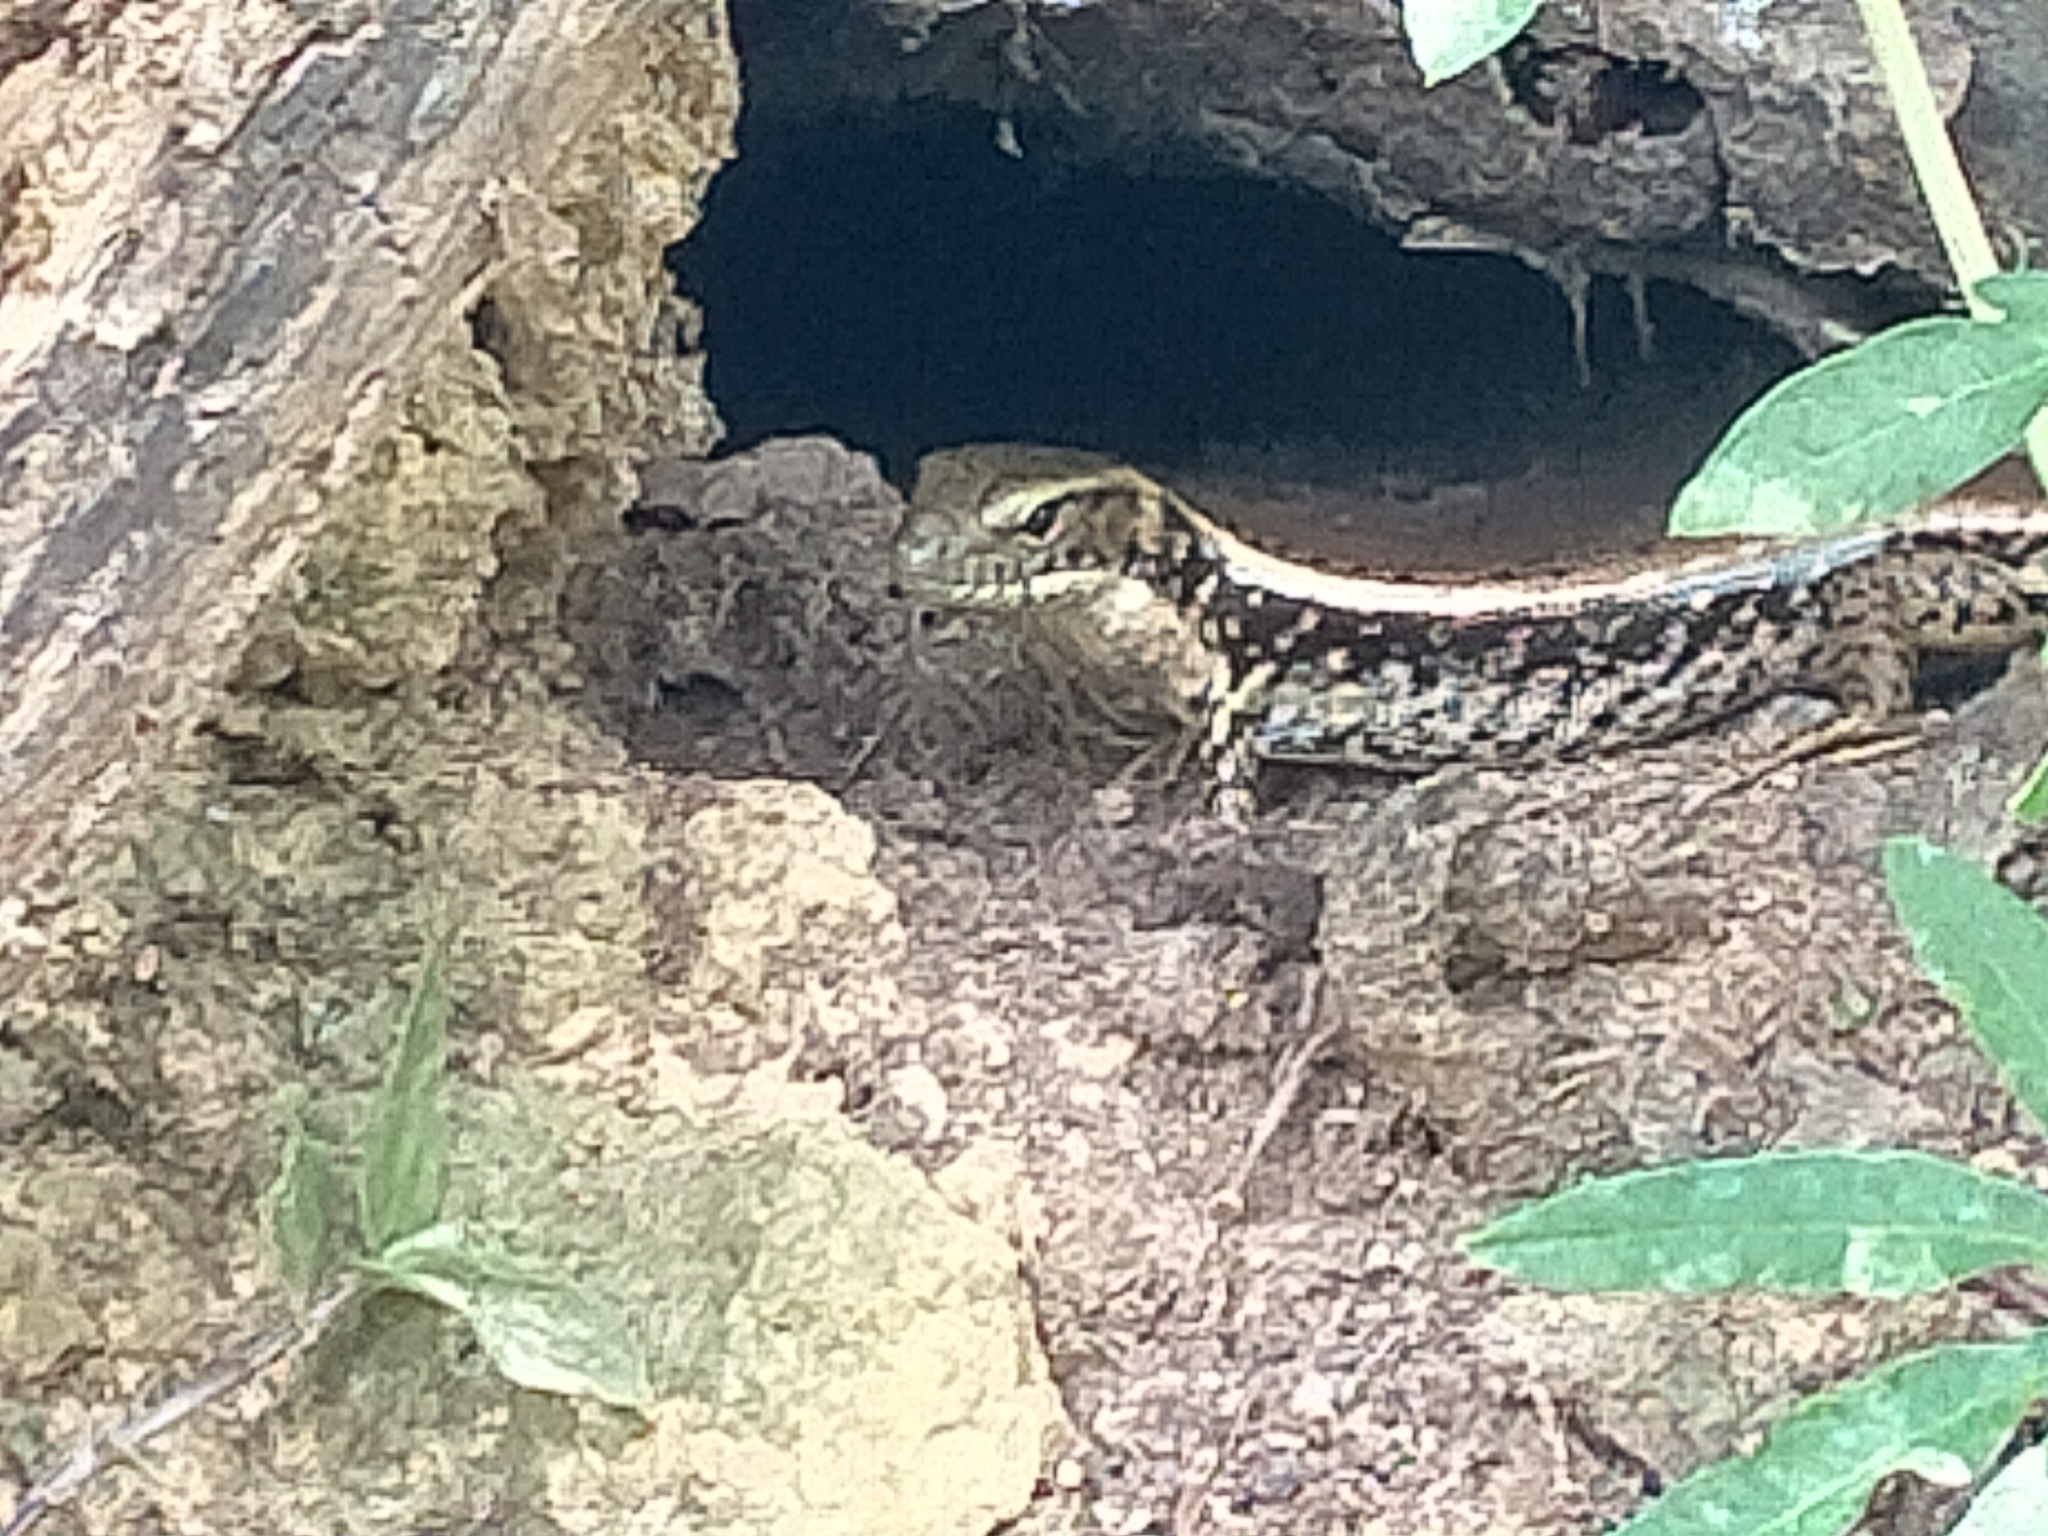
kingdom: Animalia
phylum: Chordata
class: Squamata
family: Scincidae
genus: Eulamprus
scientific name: Eulamprus quoyii
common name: Eastern water skink
